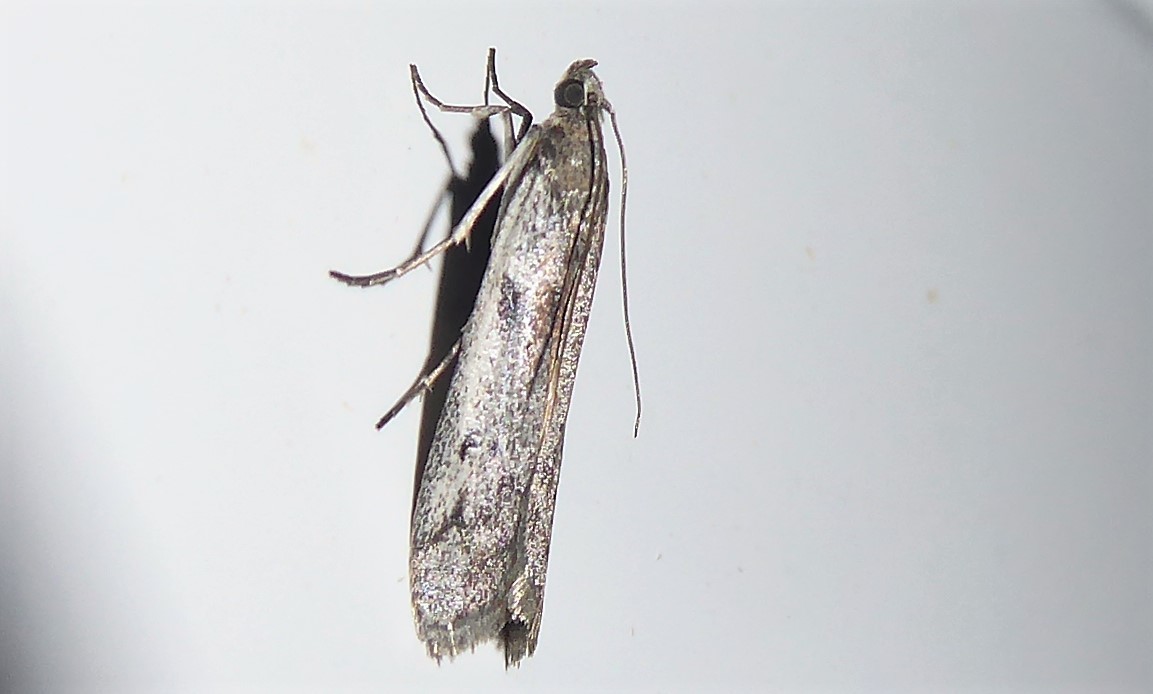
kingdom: Animalia
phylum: Arthropoda
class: Insecta
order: Lepidoptera
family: Pyralidae
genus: Patagoniodes
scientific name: Patagoniodes farinaria
